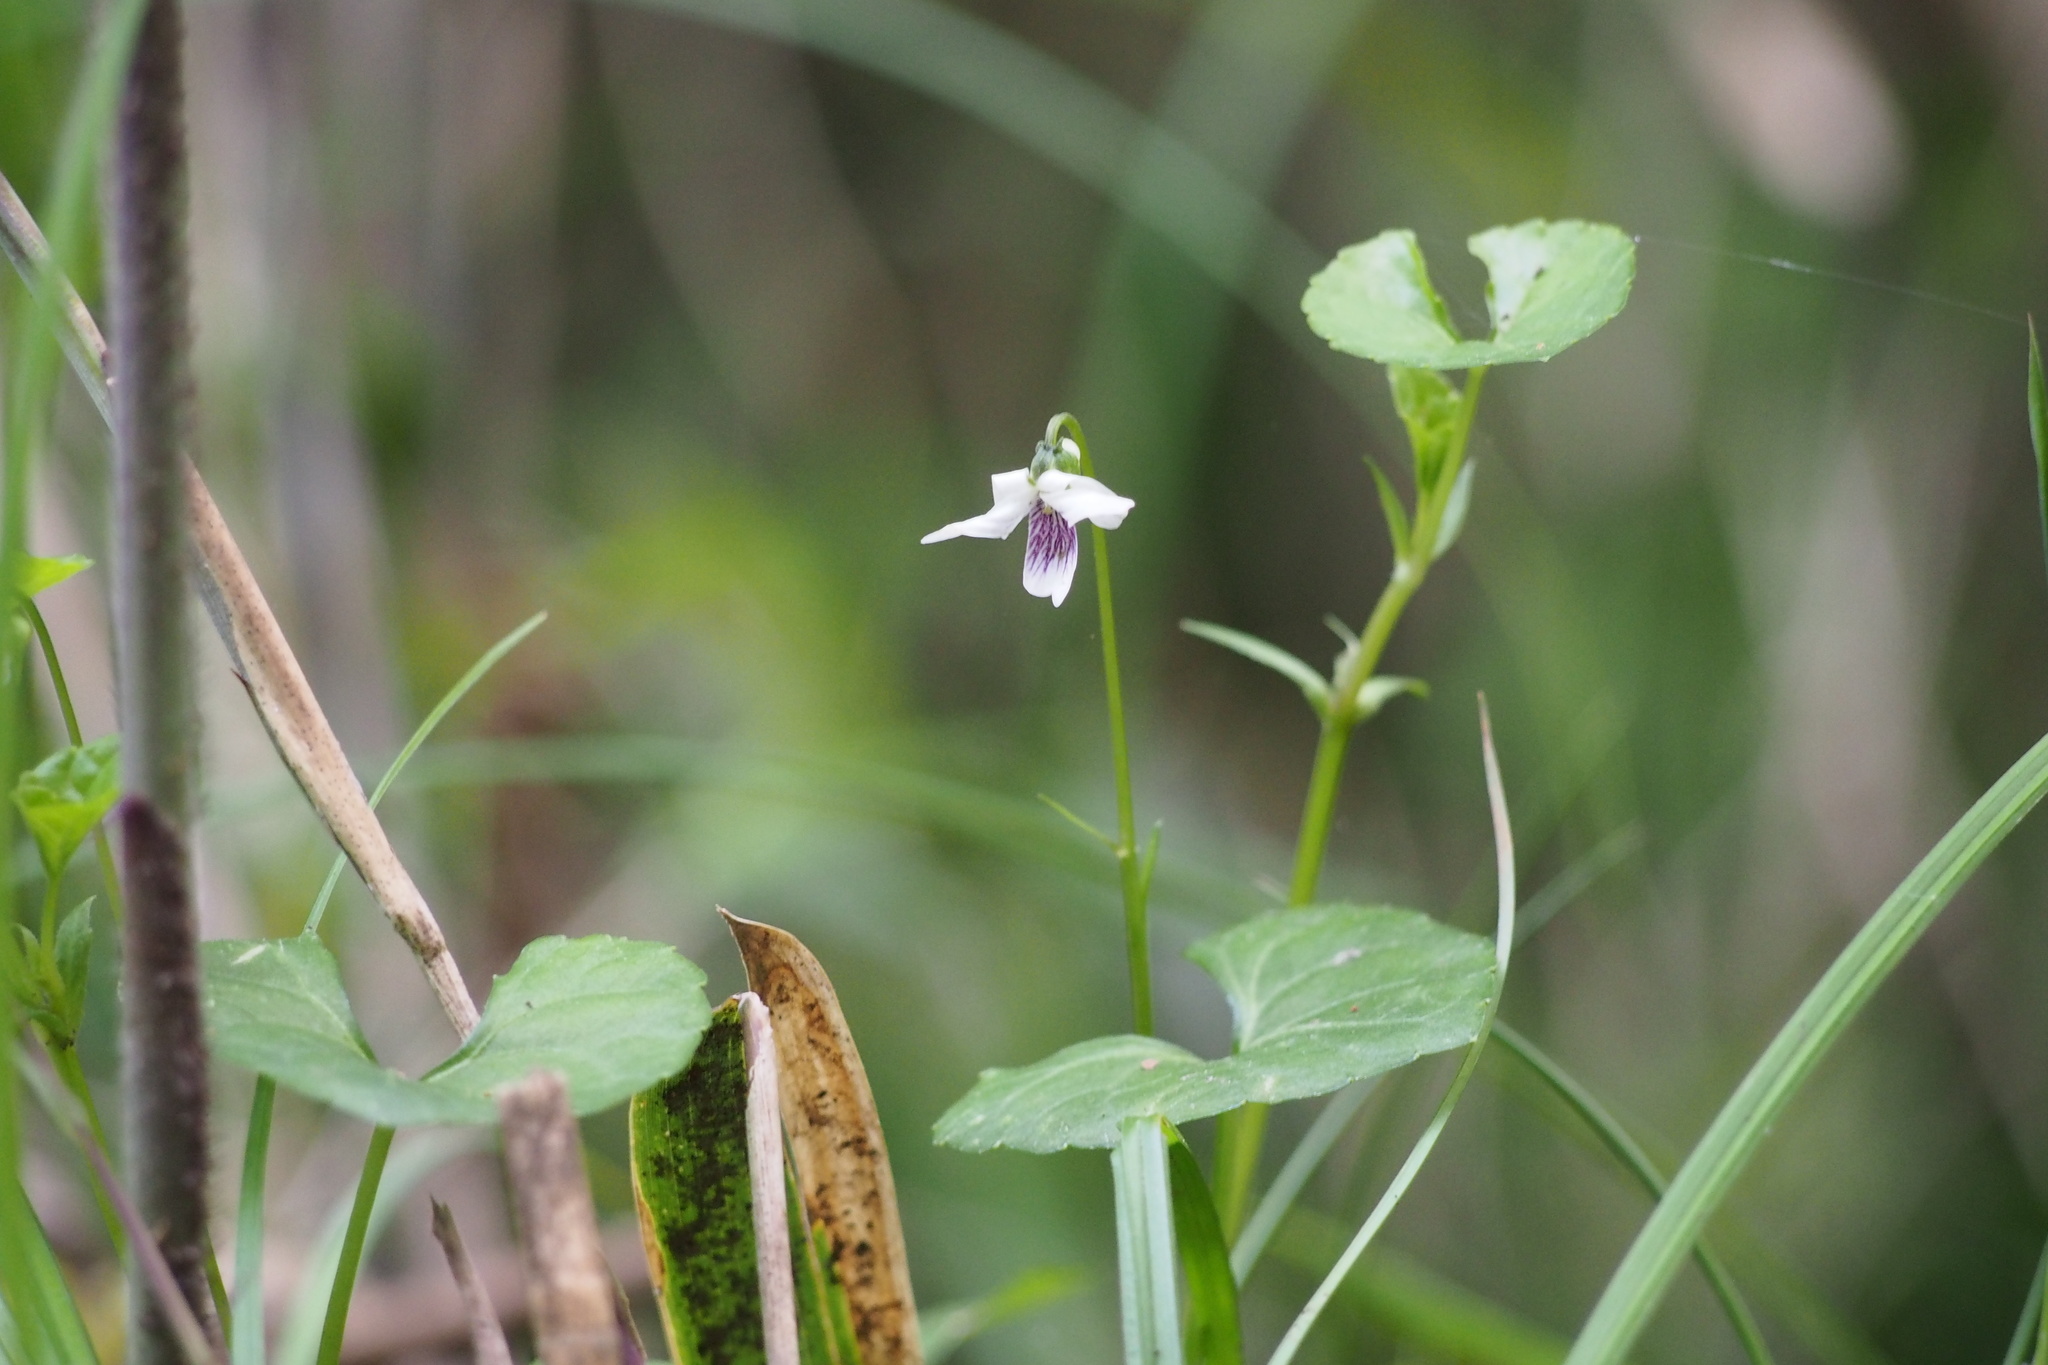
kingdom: Plantae
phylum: Tracheophyta
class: Magnoliopsida
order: Malpighiales
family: Violaceae
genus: Viola
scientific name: Viola
